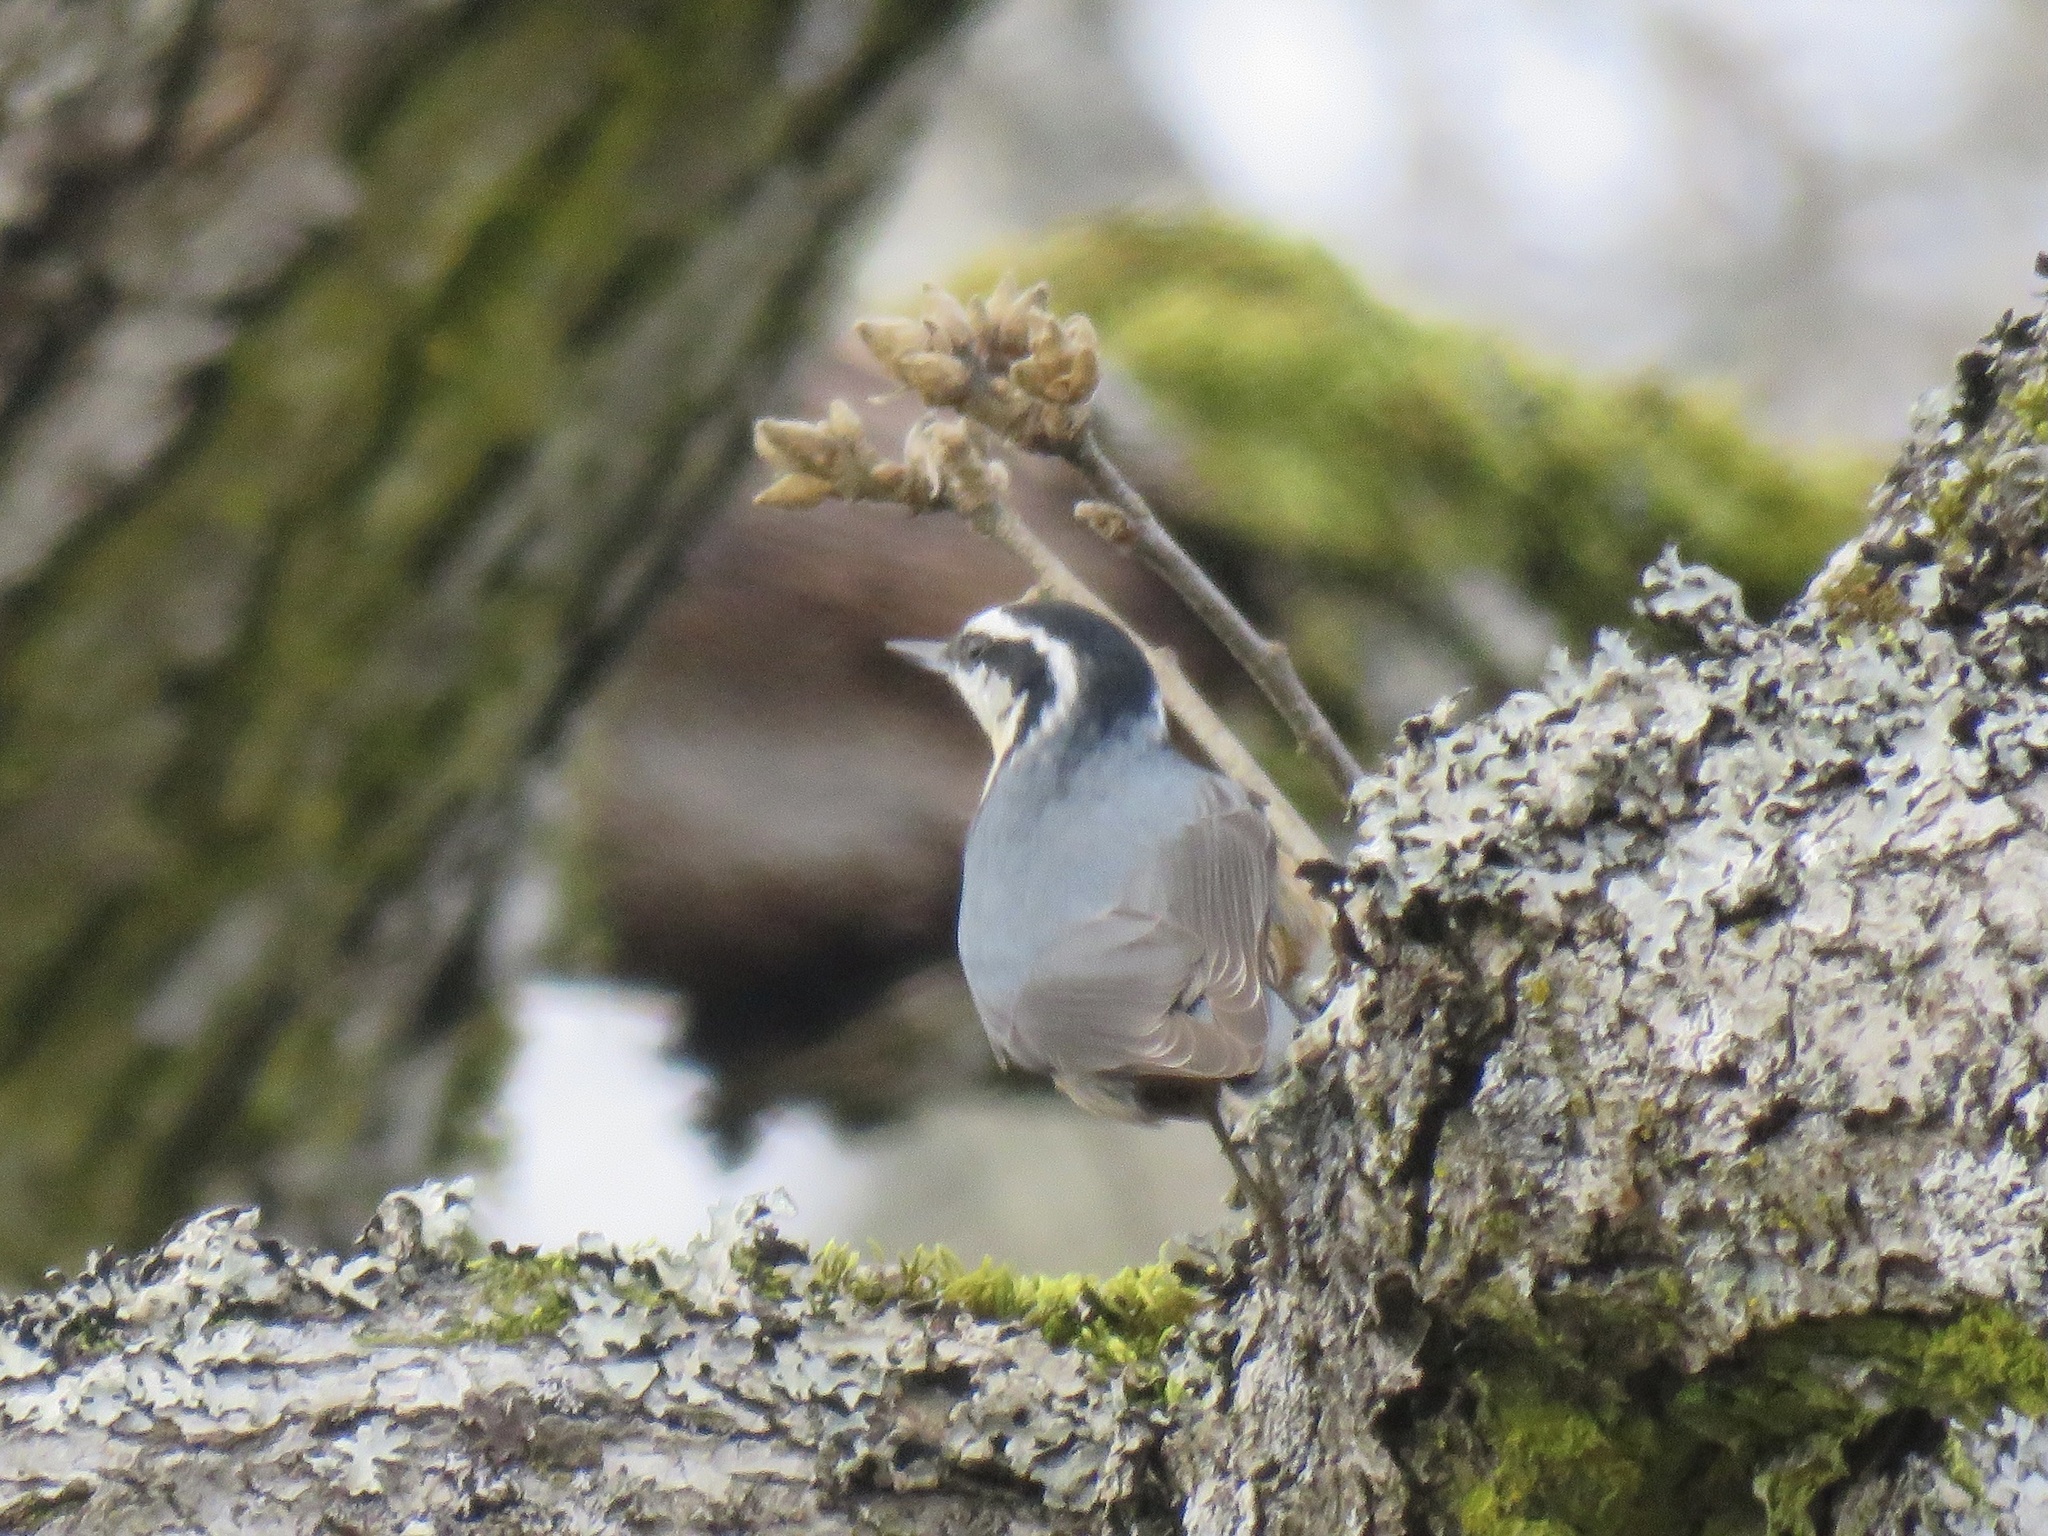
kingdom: Animalia
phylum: Chordata
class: Aves
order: Passeriformes
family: Sittidae
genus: Sitta
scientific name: Sitta canadensis
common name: Red-breasted nuthatch
